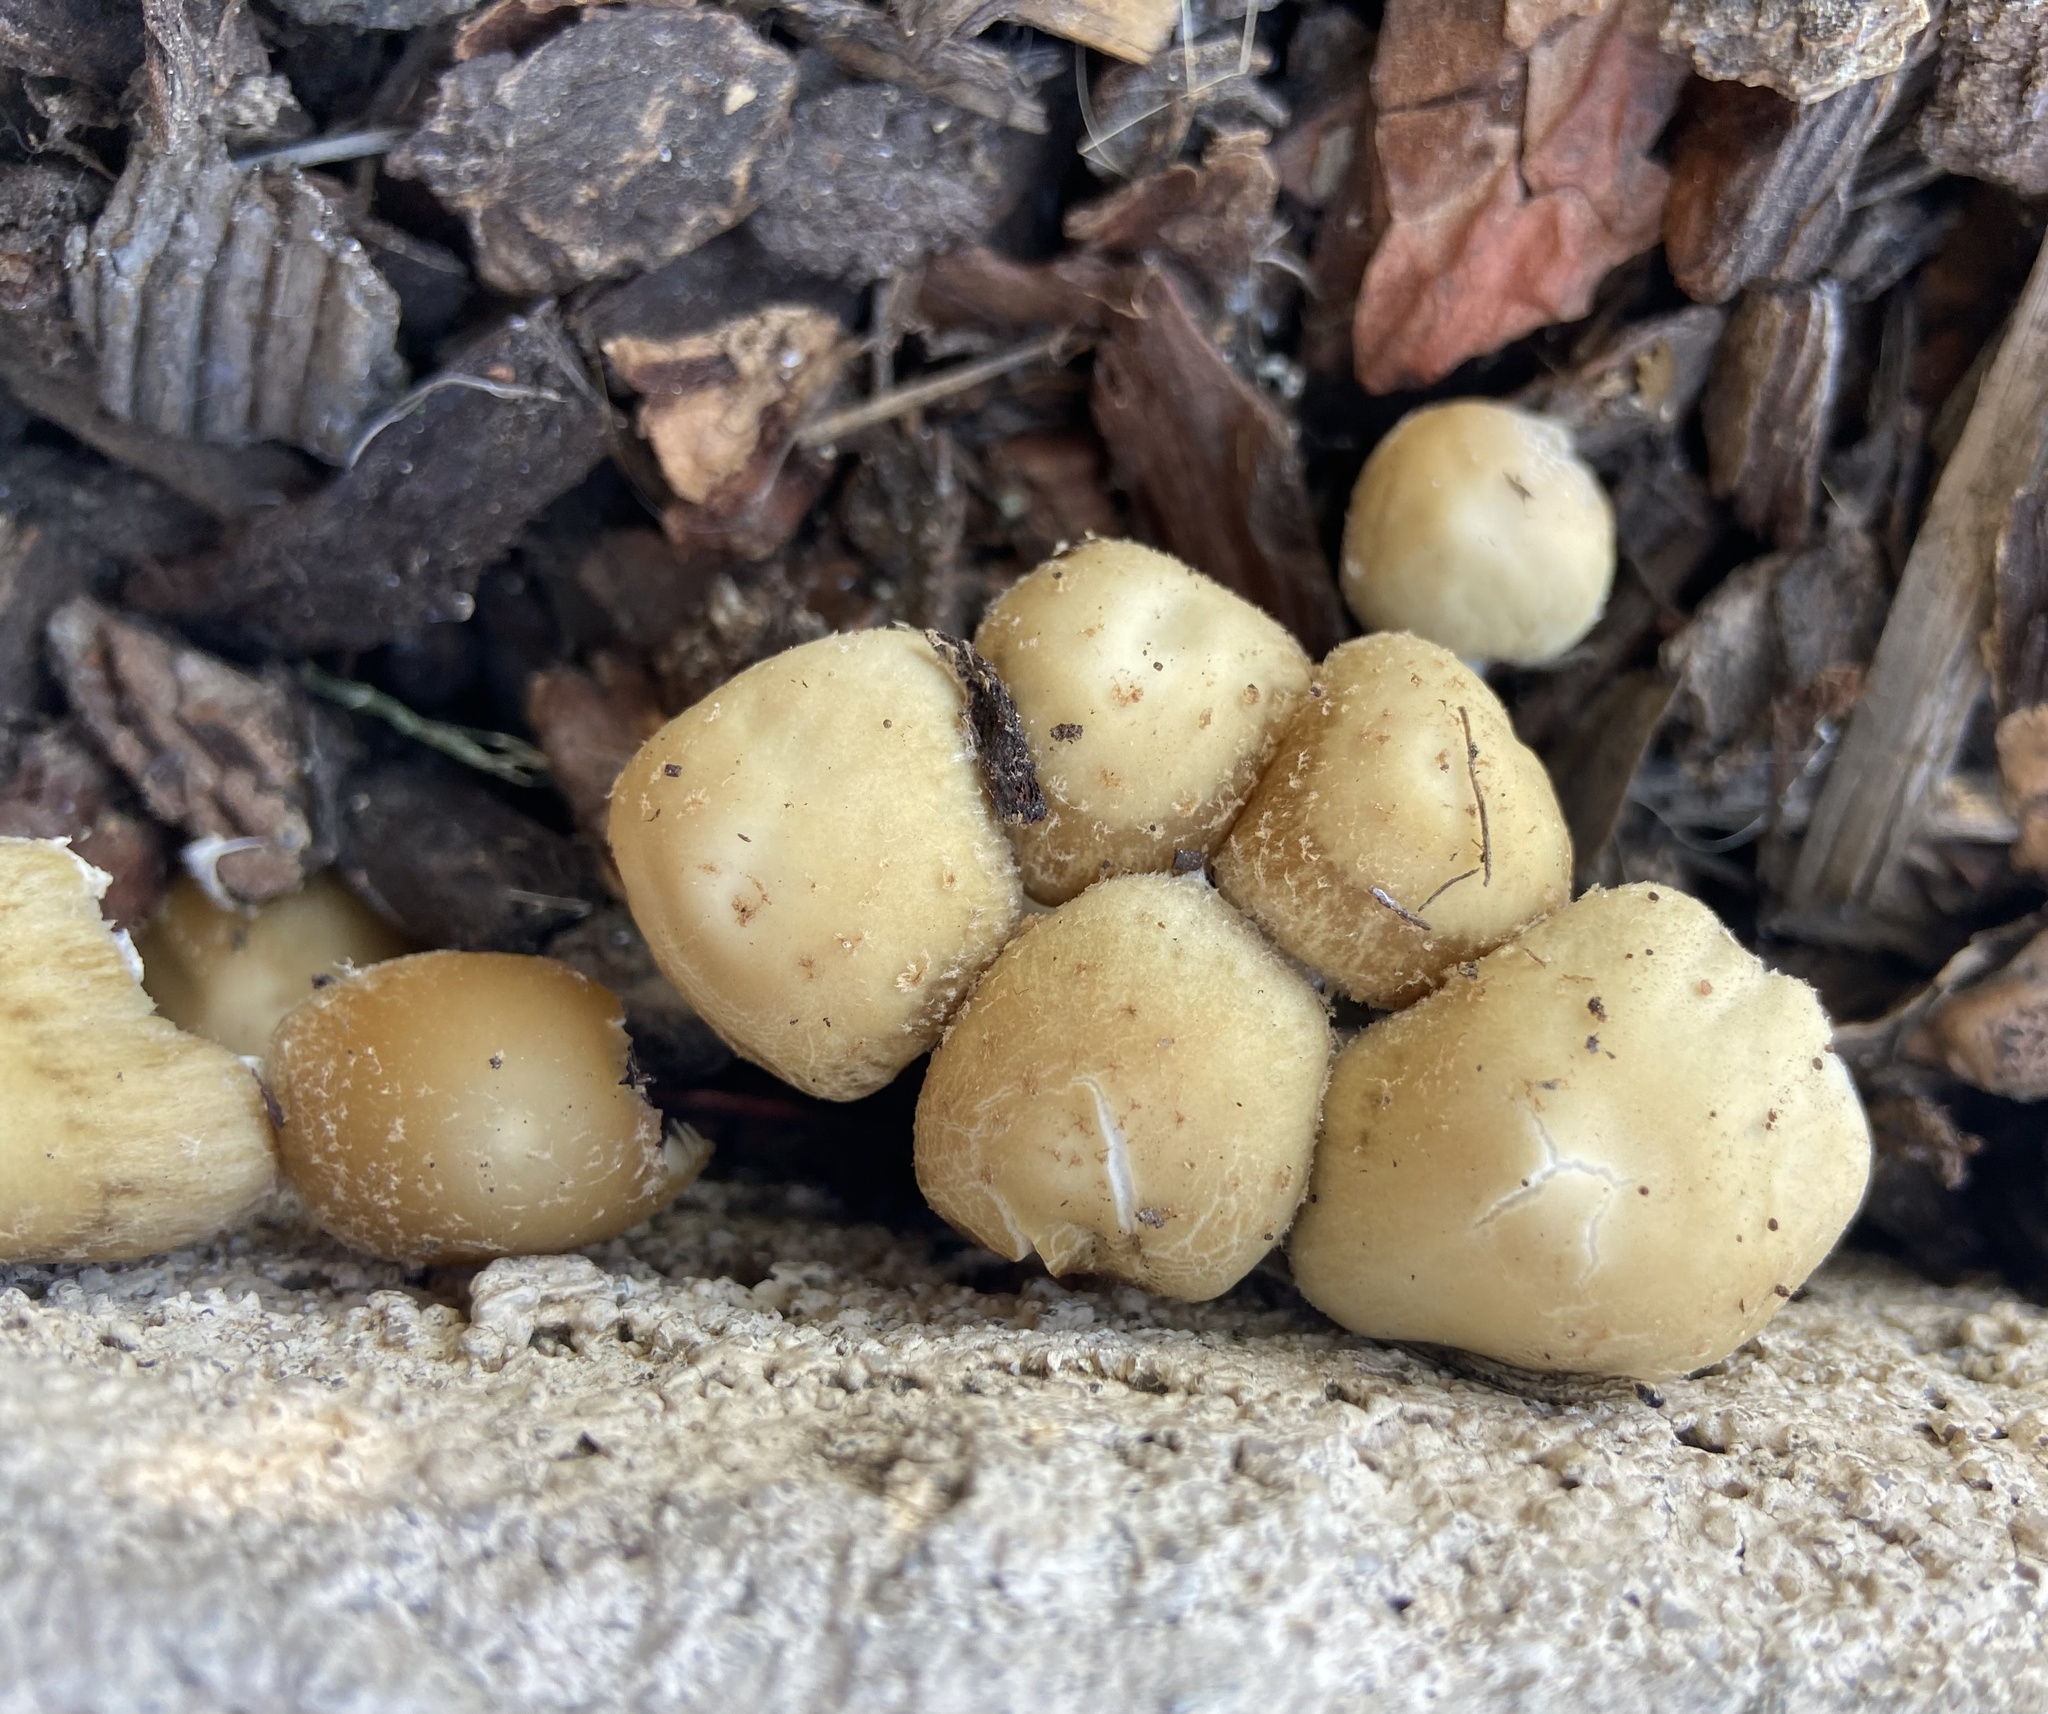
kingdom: Fungi
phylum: Basidiomycota
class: Agaricomycetes
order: Agaricales
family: Psathyrellaceae
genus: Candolleomyces
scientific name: Candolleomyces candolleanus
